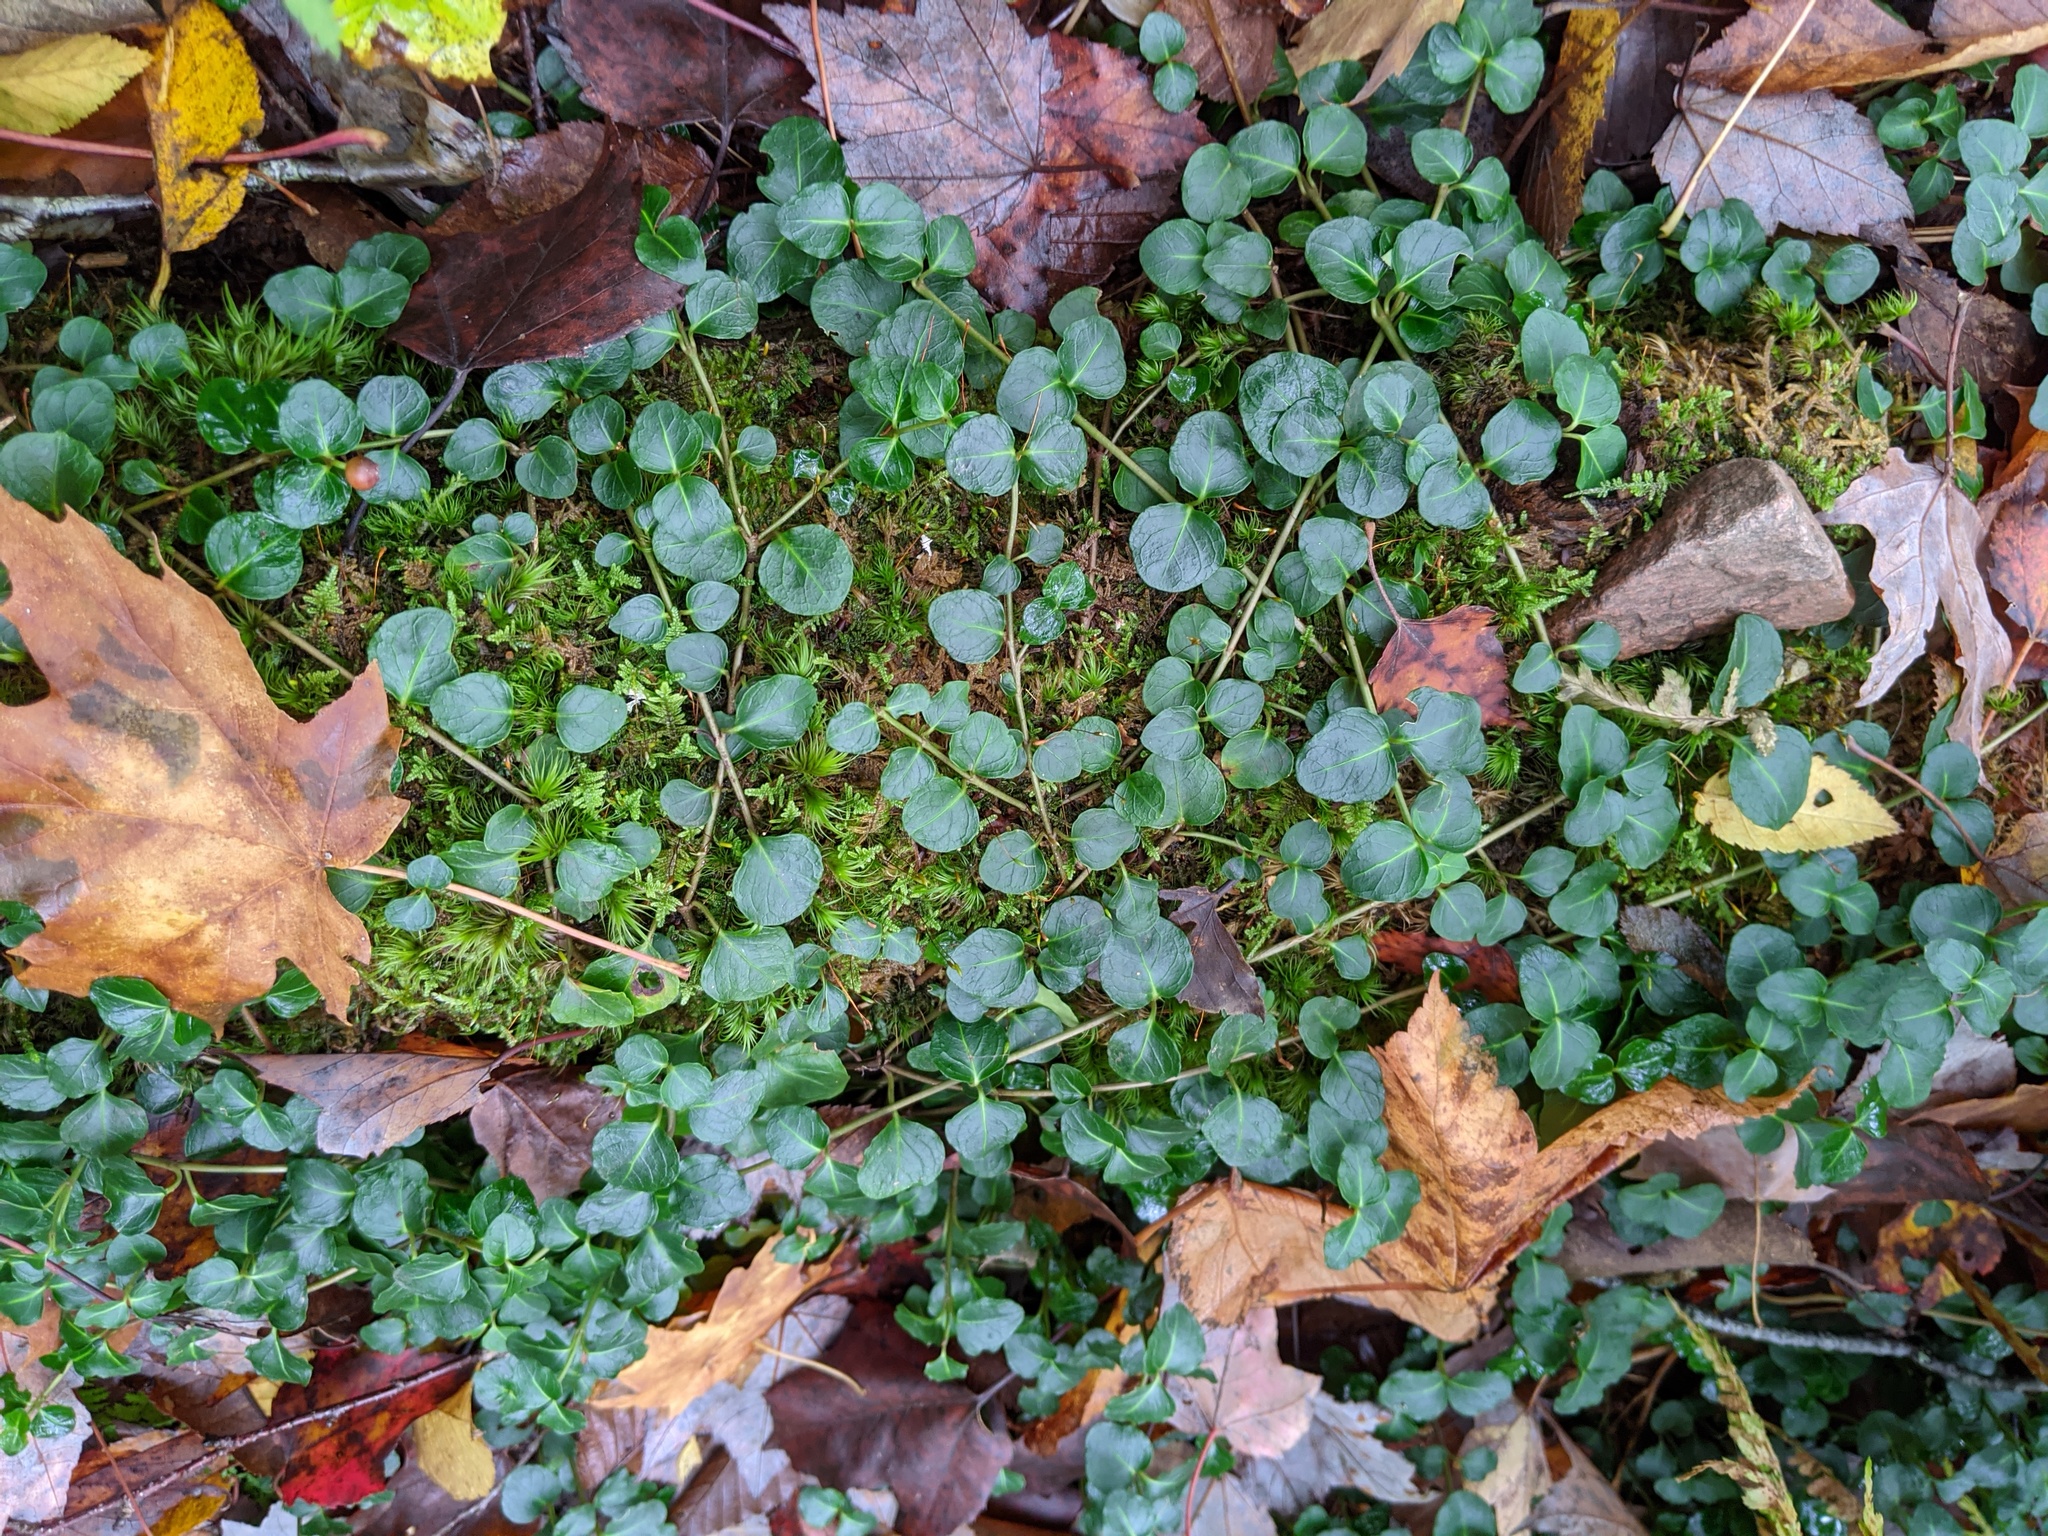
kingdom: Plantae
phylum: Tracheophyta
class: Magnoliopsida
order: Dipsacales
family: Caprifoliaceae
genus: Linnaea
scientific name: Linnaea borealis
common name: Twinflower
